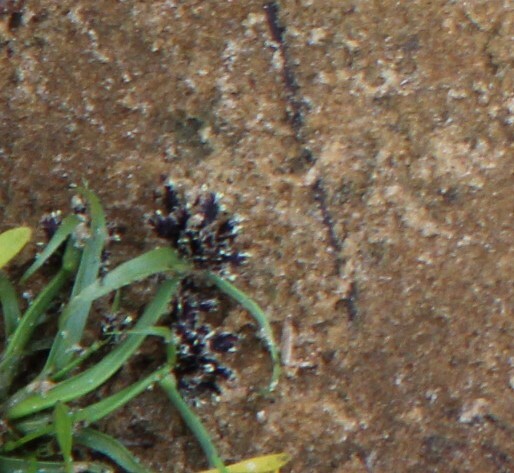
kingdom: Plantae
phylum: Tracheophyta
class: Liliopsida
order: Poales
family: Cyperaceae
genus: Cyperus
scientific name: Cyperus fuscus
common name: Brown galingale
